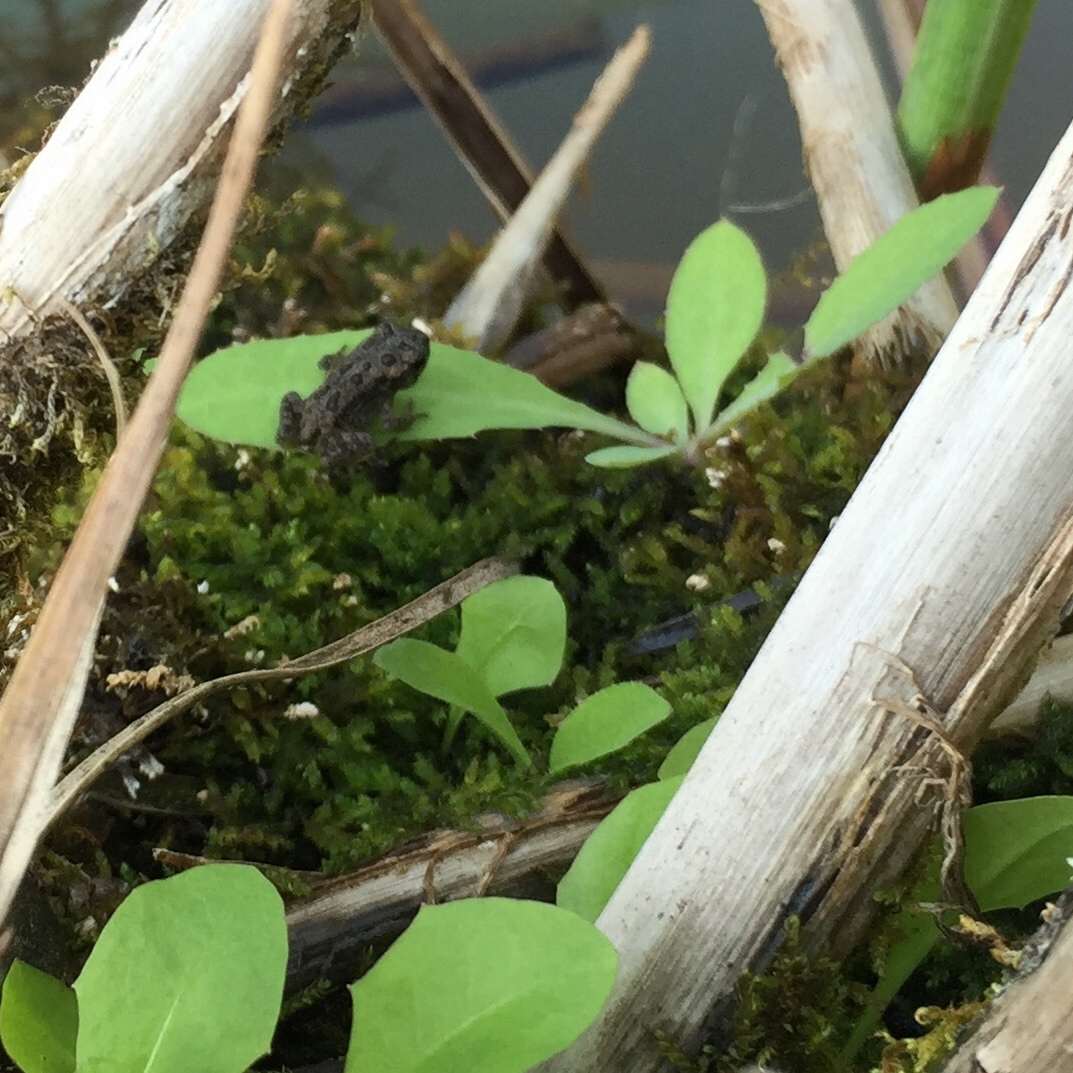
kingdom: Animalia
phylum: Chordata
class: Amphibia
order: Anura
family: Bufonidae
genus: Anaxyrus
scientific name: Anaxyrus
